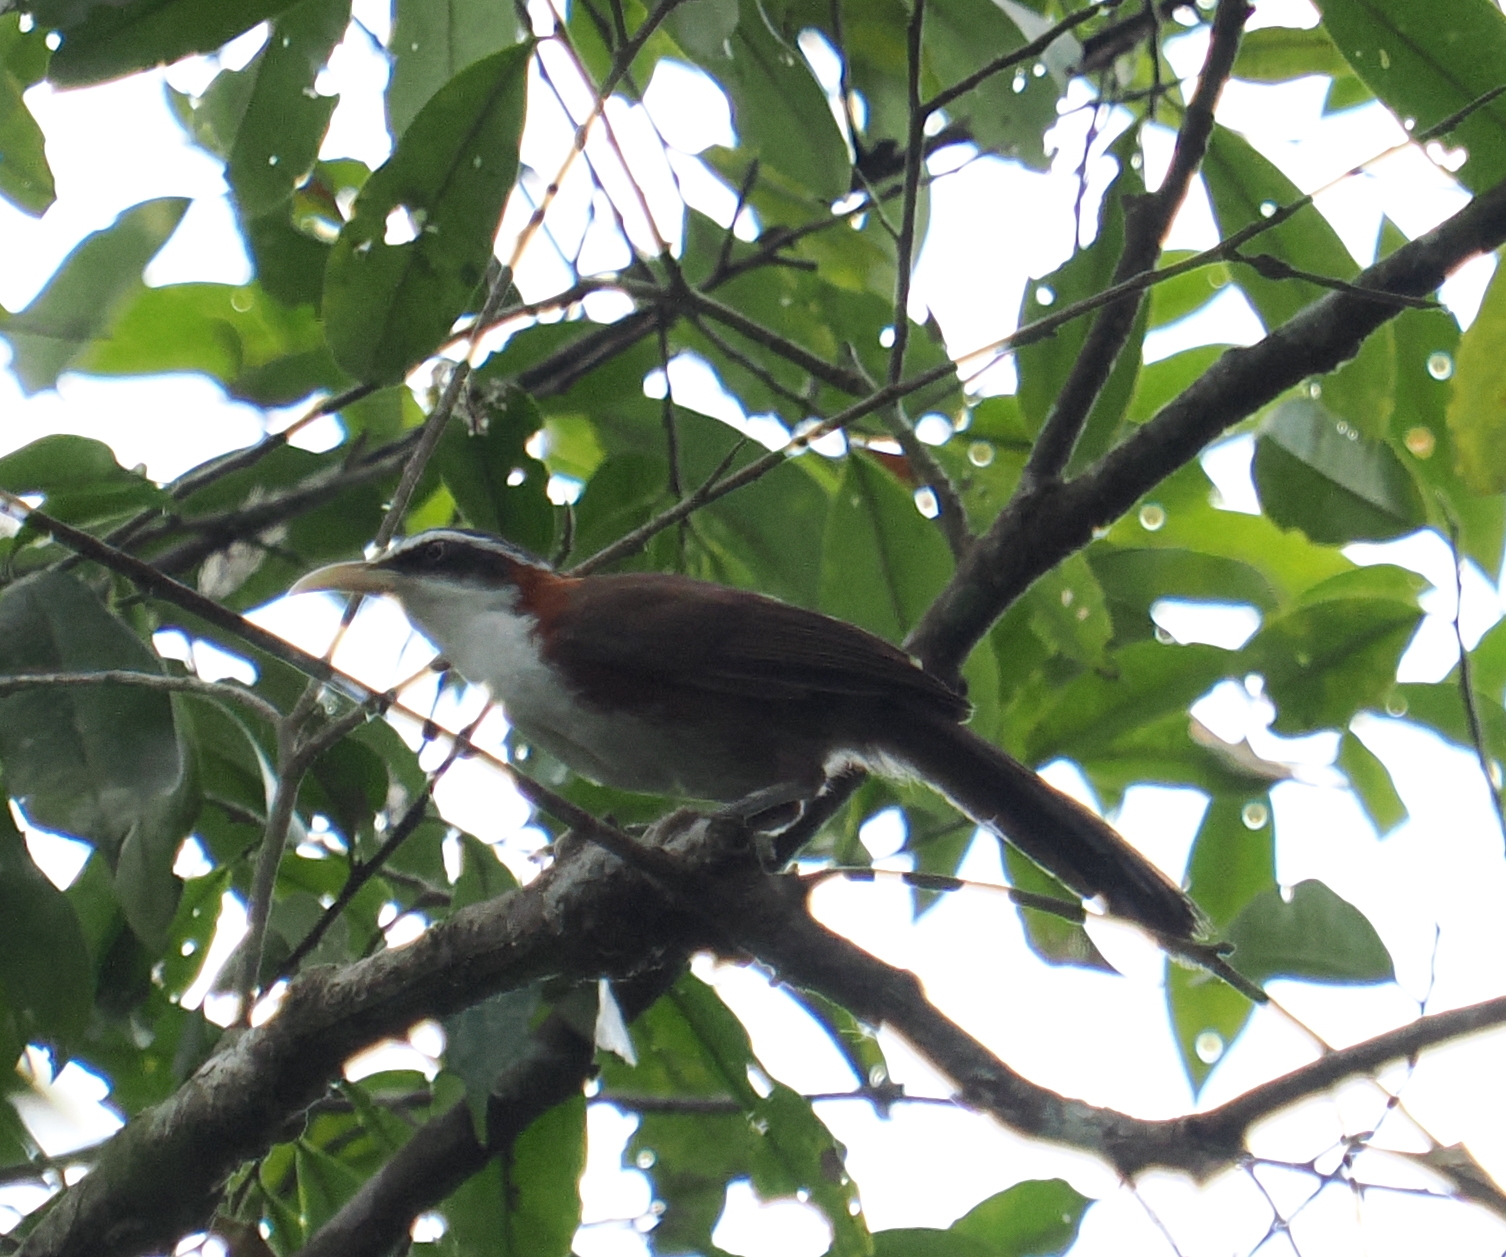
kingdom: Animalia
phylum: Chordata
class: Aves
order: Passeriformes
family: Timaliidae
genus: Pomatorhinus
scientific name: Pomatorhinus schisticeps
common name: White-browed scimitar babbler
